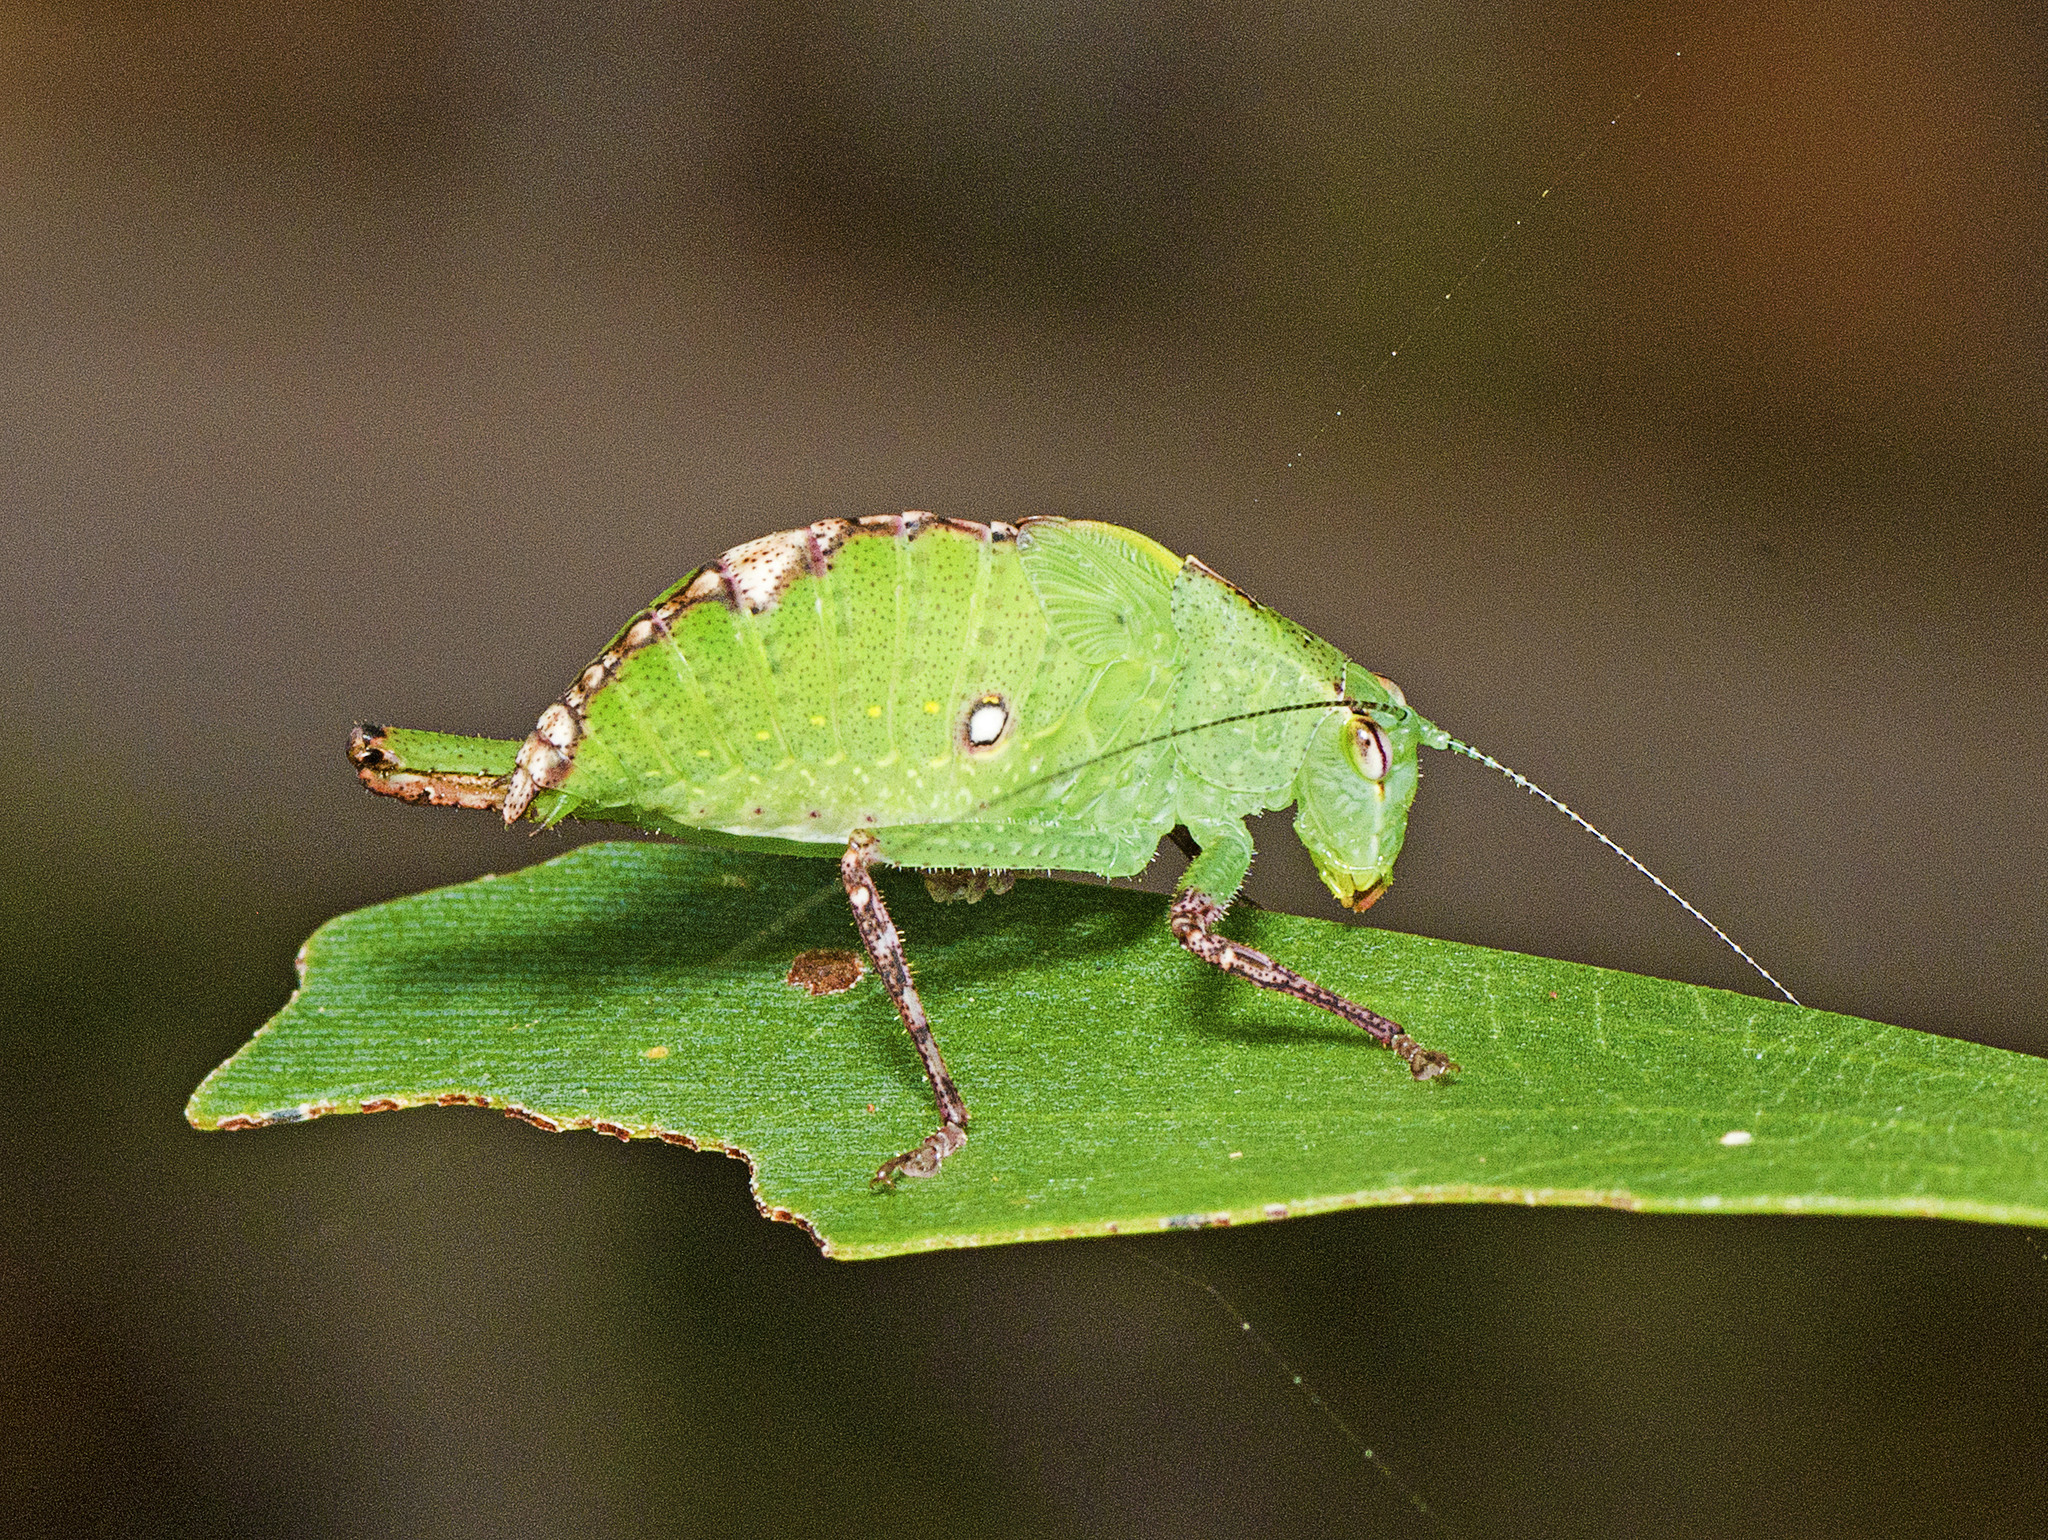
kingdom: Animalia
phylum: Arthropoda
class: Insecta
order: Orthoptera
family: Tettigoniidae
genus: Diastella
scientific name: Diastella latifolia
